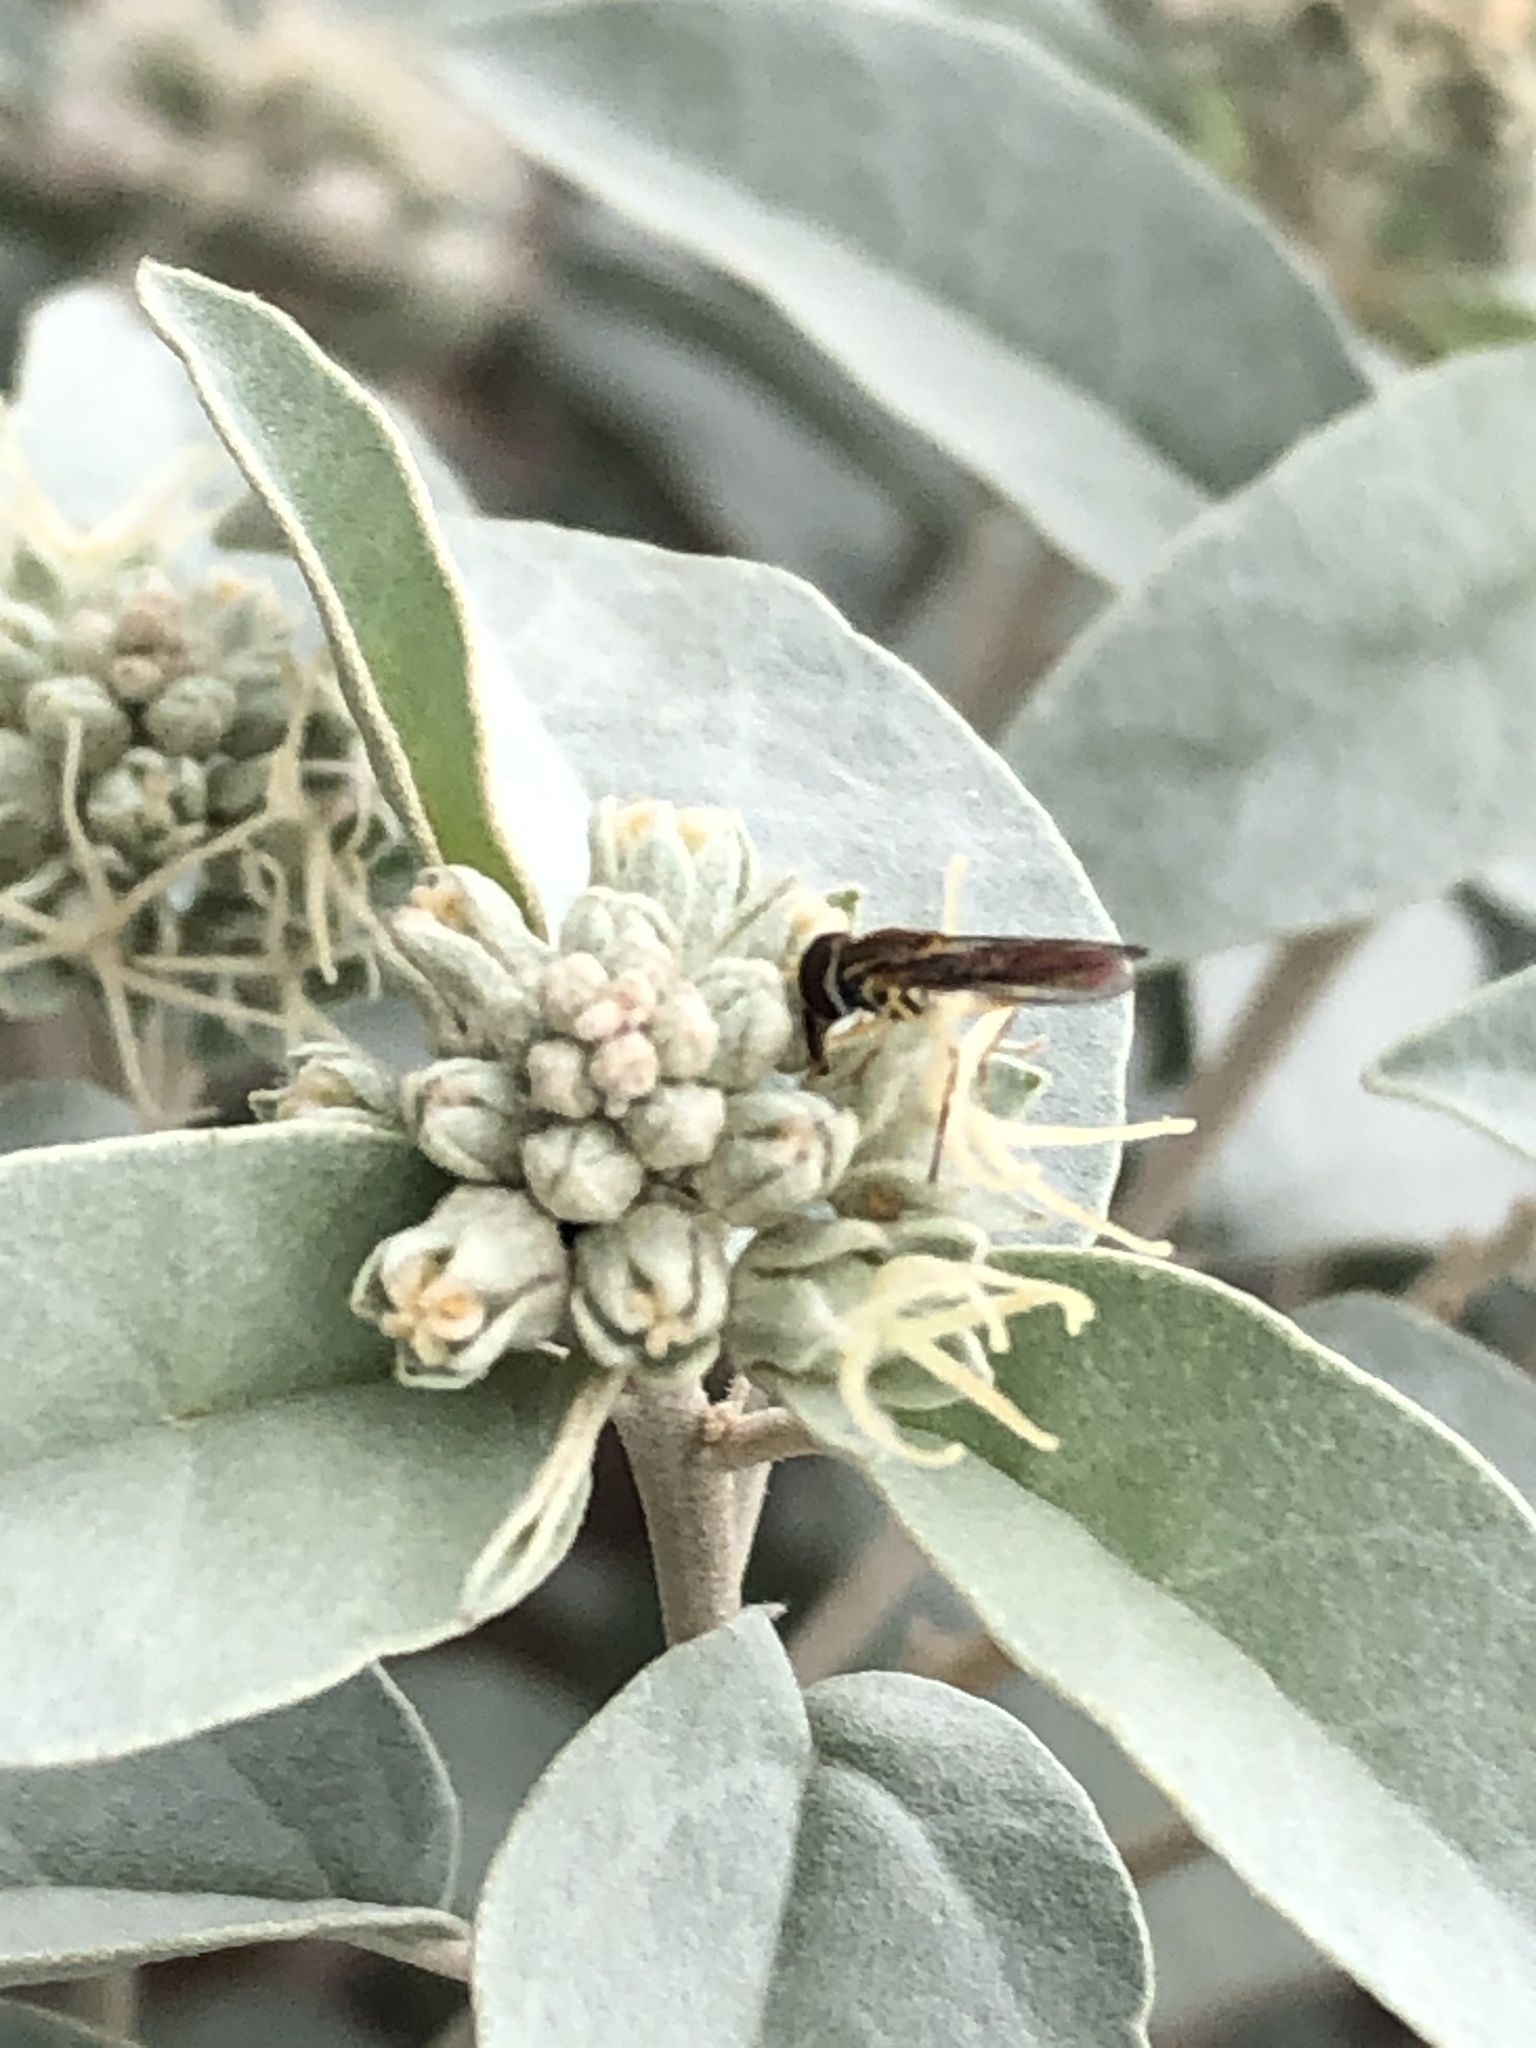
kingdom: Animalia
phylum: Arthropoda
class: Insecta
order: Diptera
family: Syrphidae
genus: Toxomerus
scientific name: Toxomerus marginatus
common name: Syrphid fly
